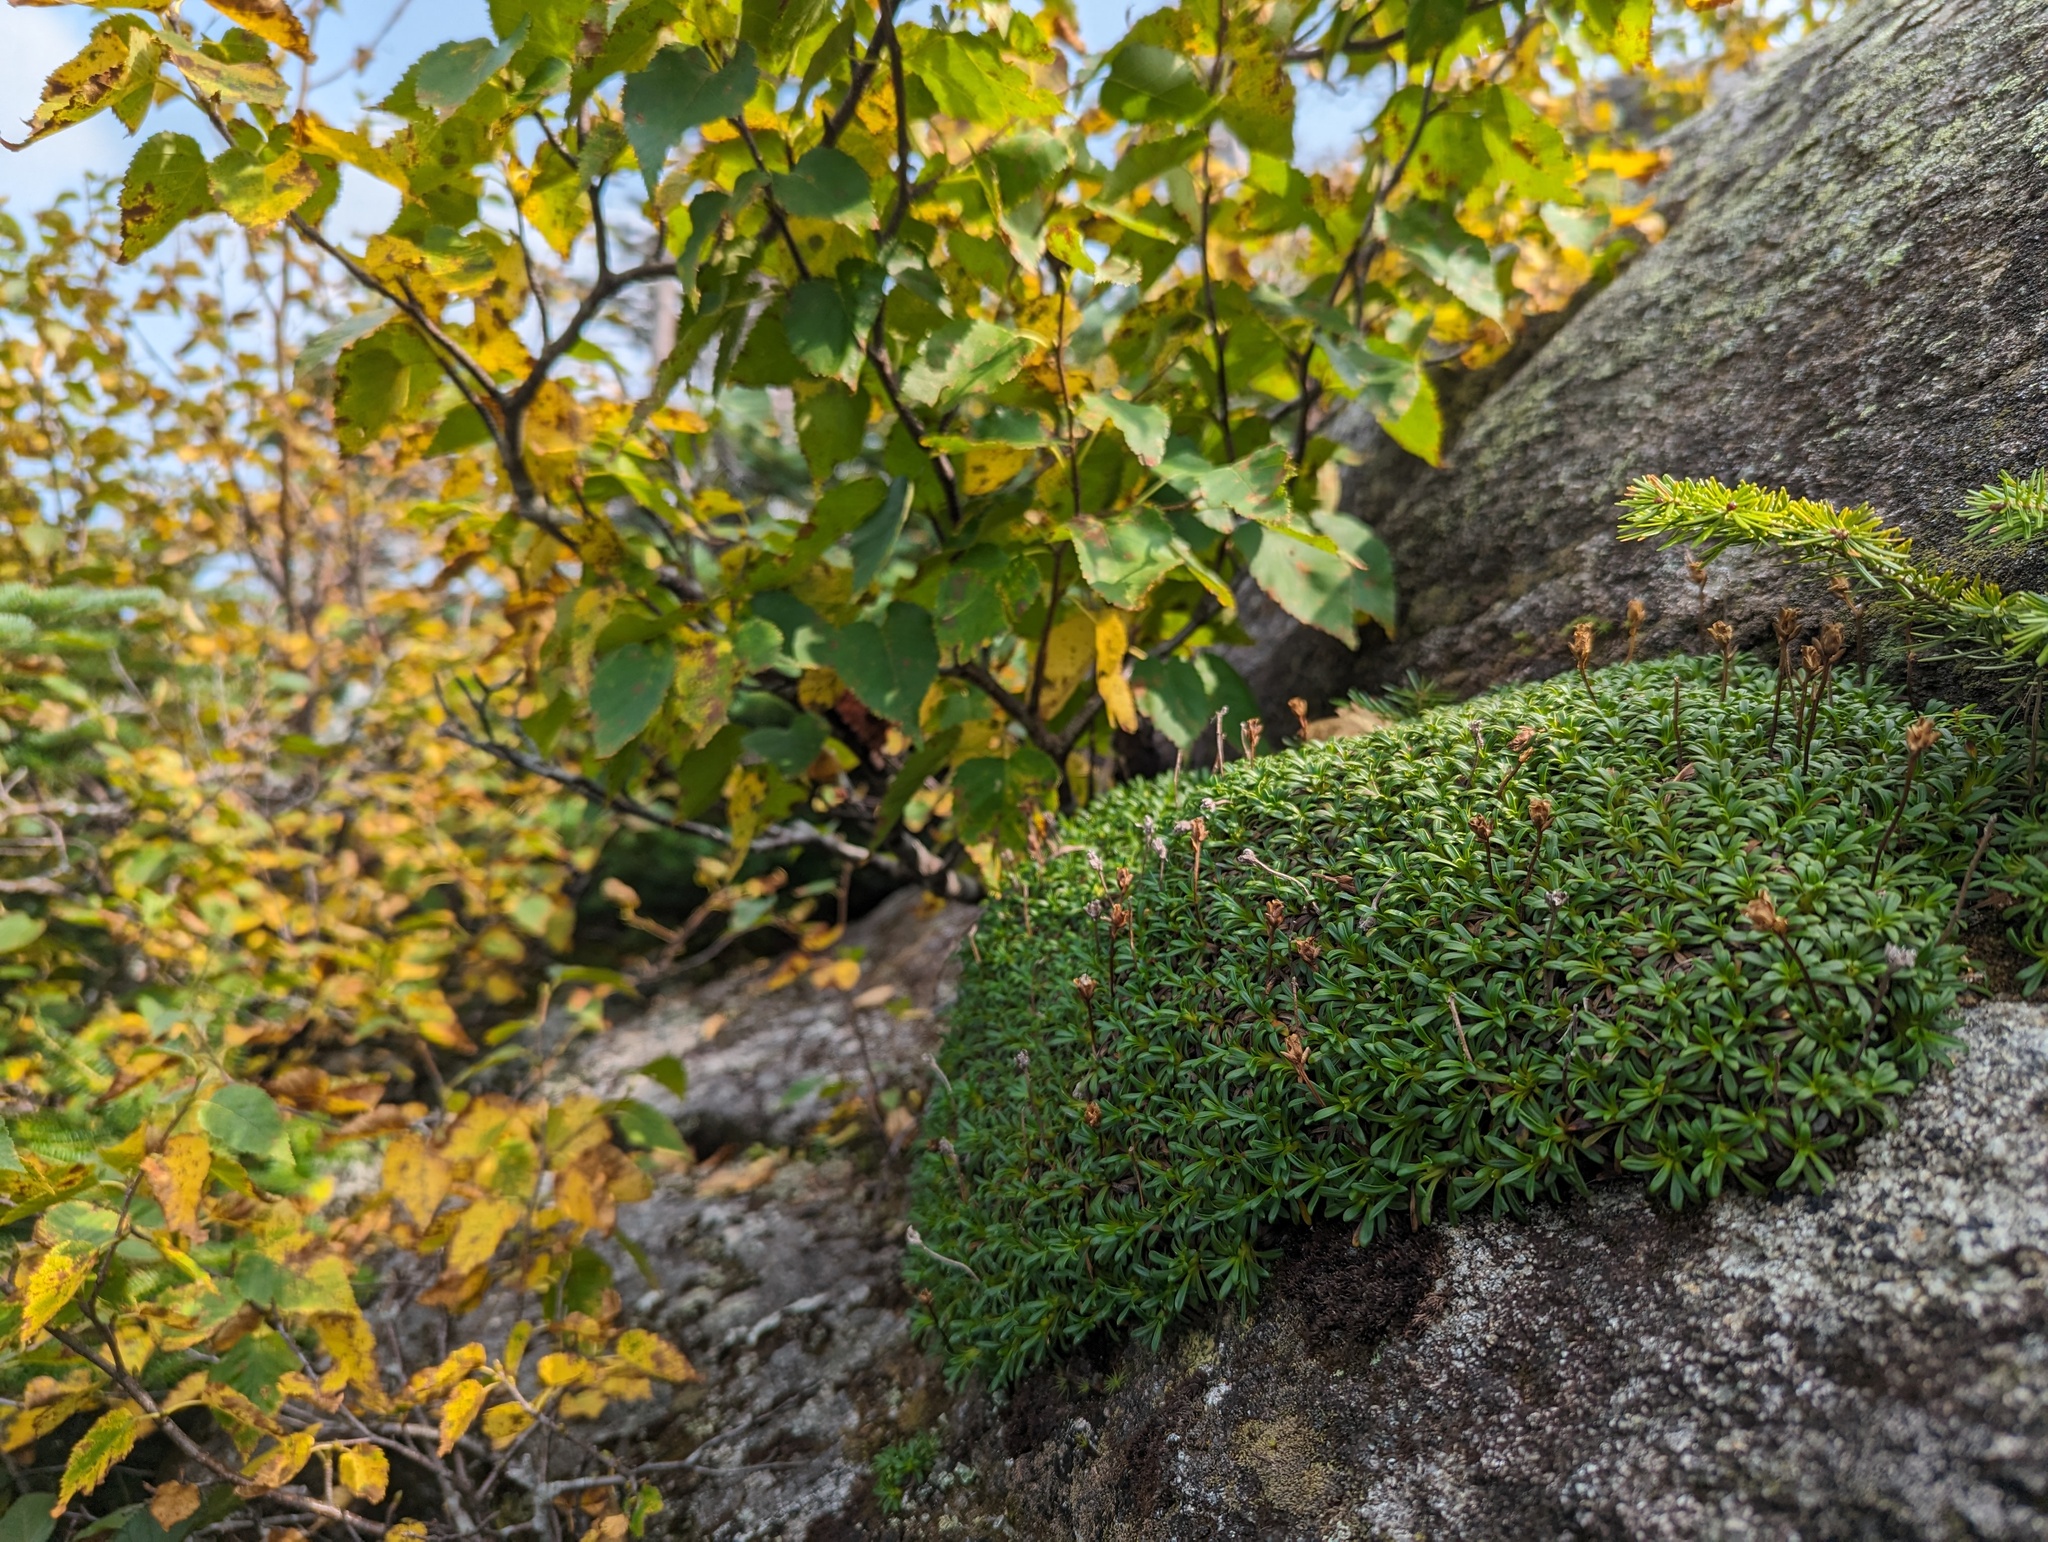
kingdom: Plantae
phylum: Tracheophyta
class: Magnoliopsida
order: Ericales
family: Diapensiaceae
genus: Diapensia
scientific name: Diapensia lapponica
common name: Diapensia
